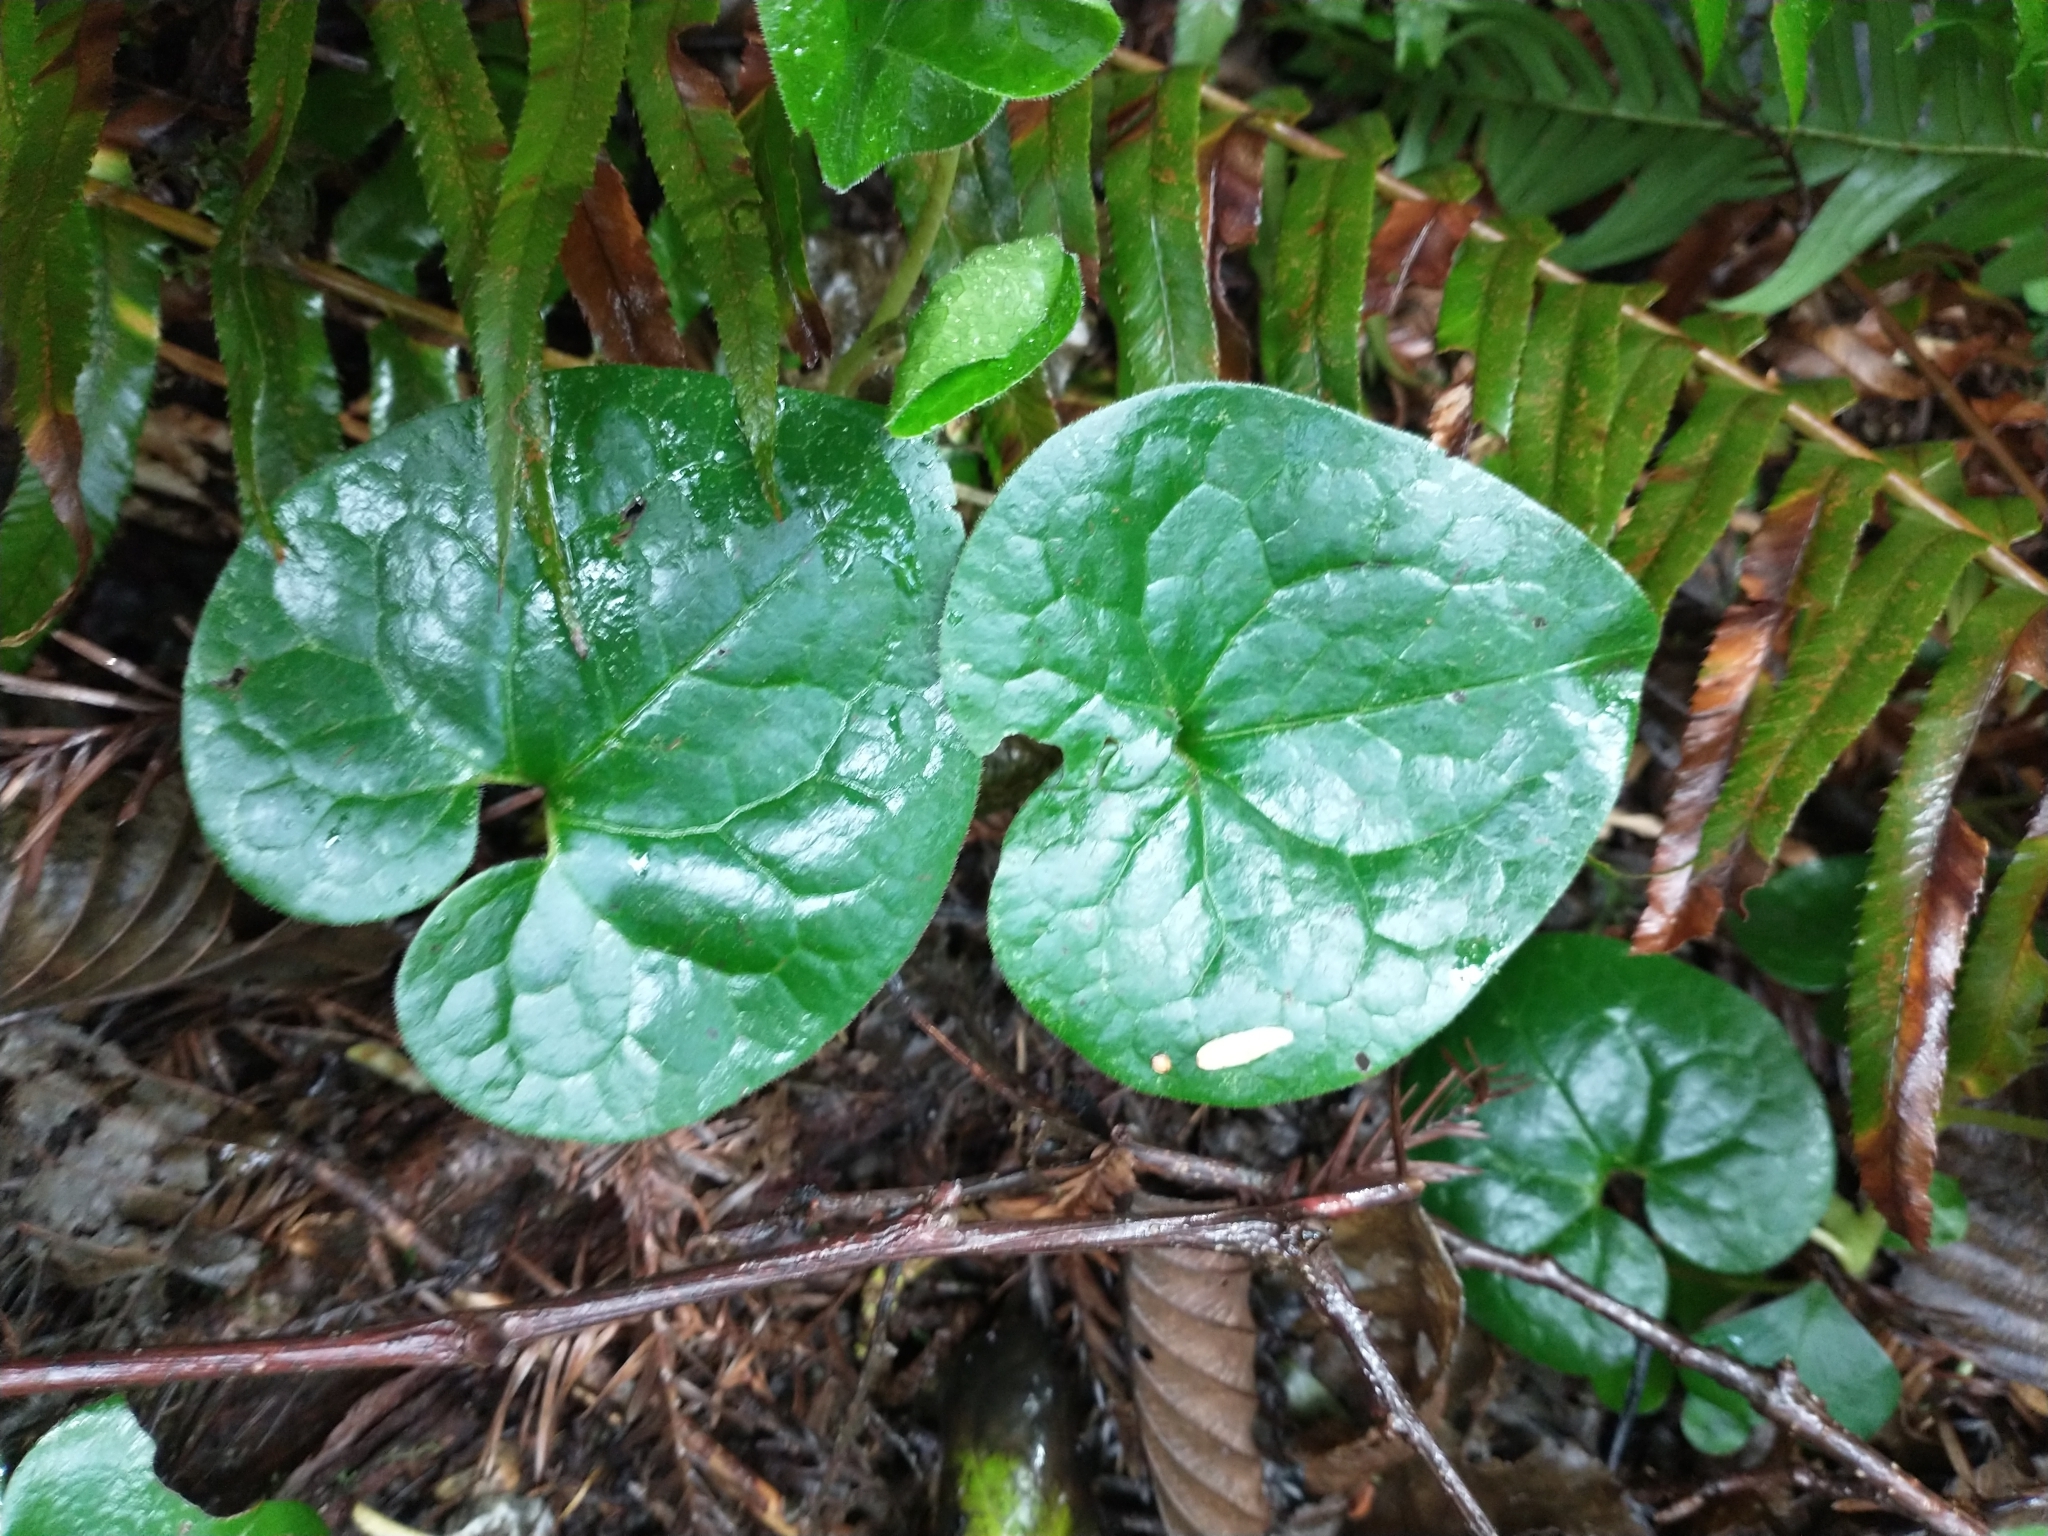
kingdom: Plantae
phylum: Tracheophyta
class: Magnoliopsida
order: Piperales
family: Aristolochiaceae
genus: Asarum
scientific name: Asarum caudatum
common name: Wild ginger
